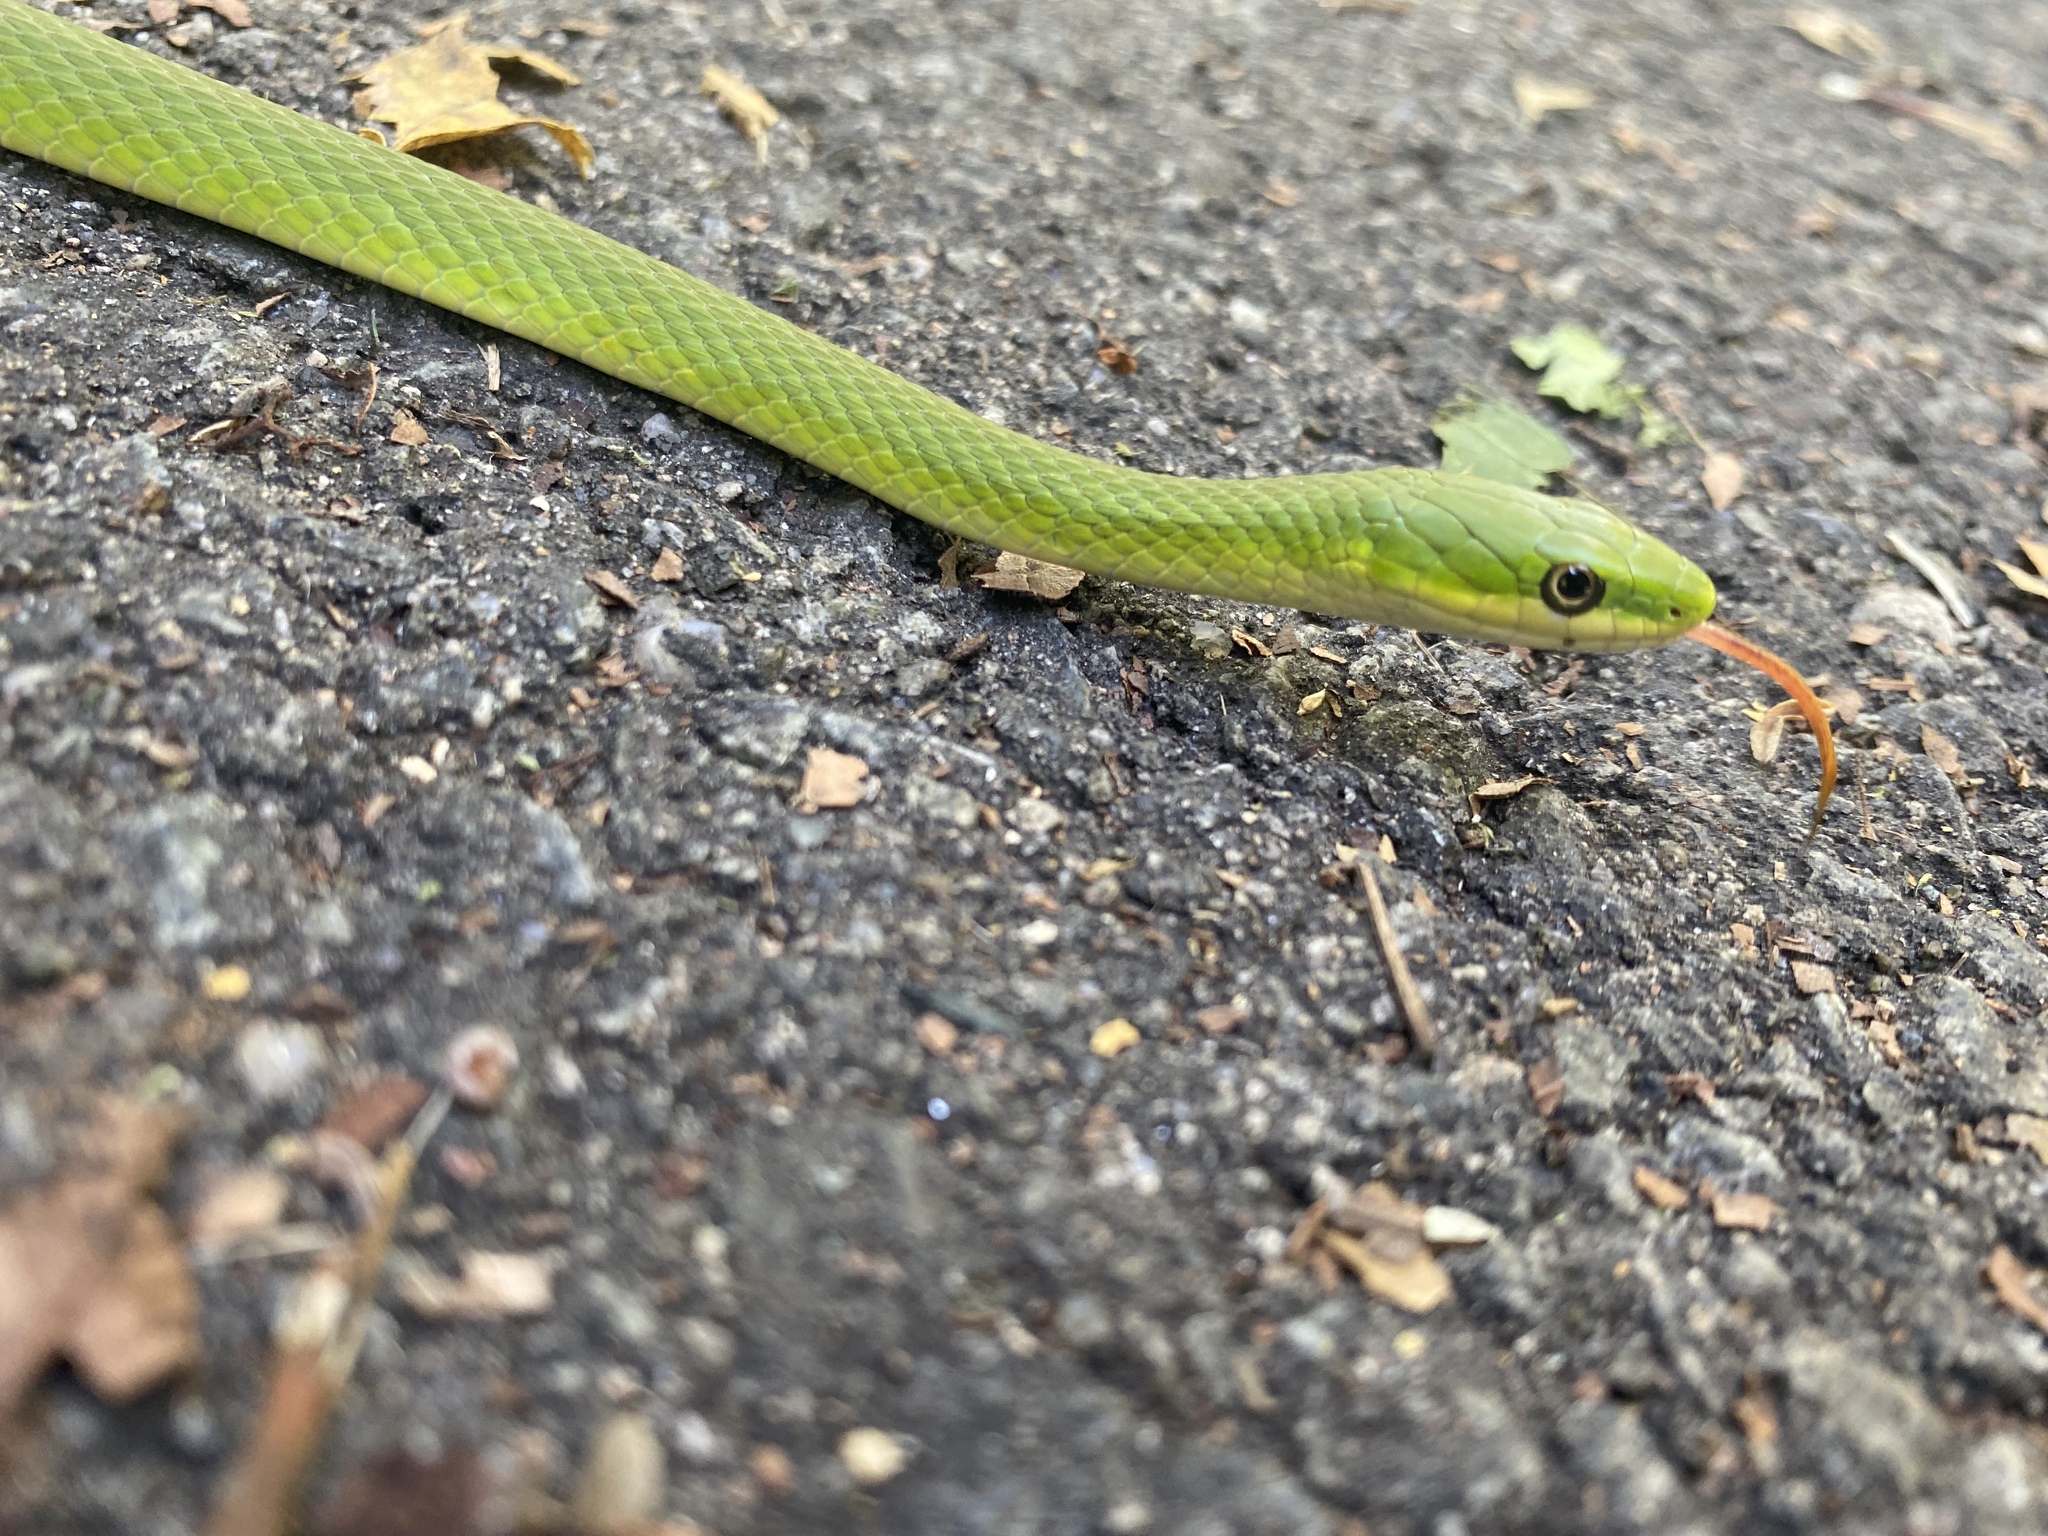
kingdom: Animalia
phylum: Chordata
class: Squamata
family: Colubridae
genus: Opheodrys
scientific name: Opheodrys aestivus
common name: Rough greensnake
